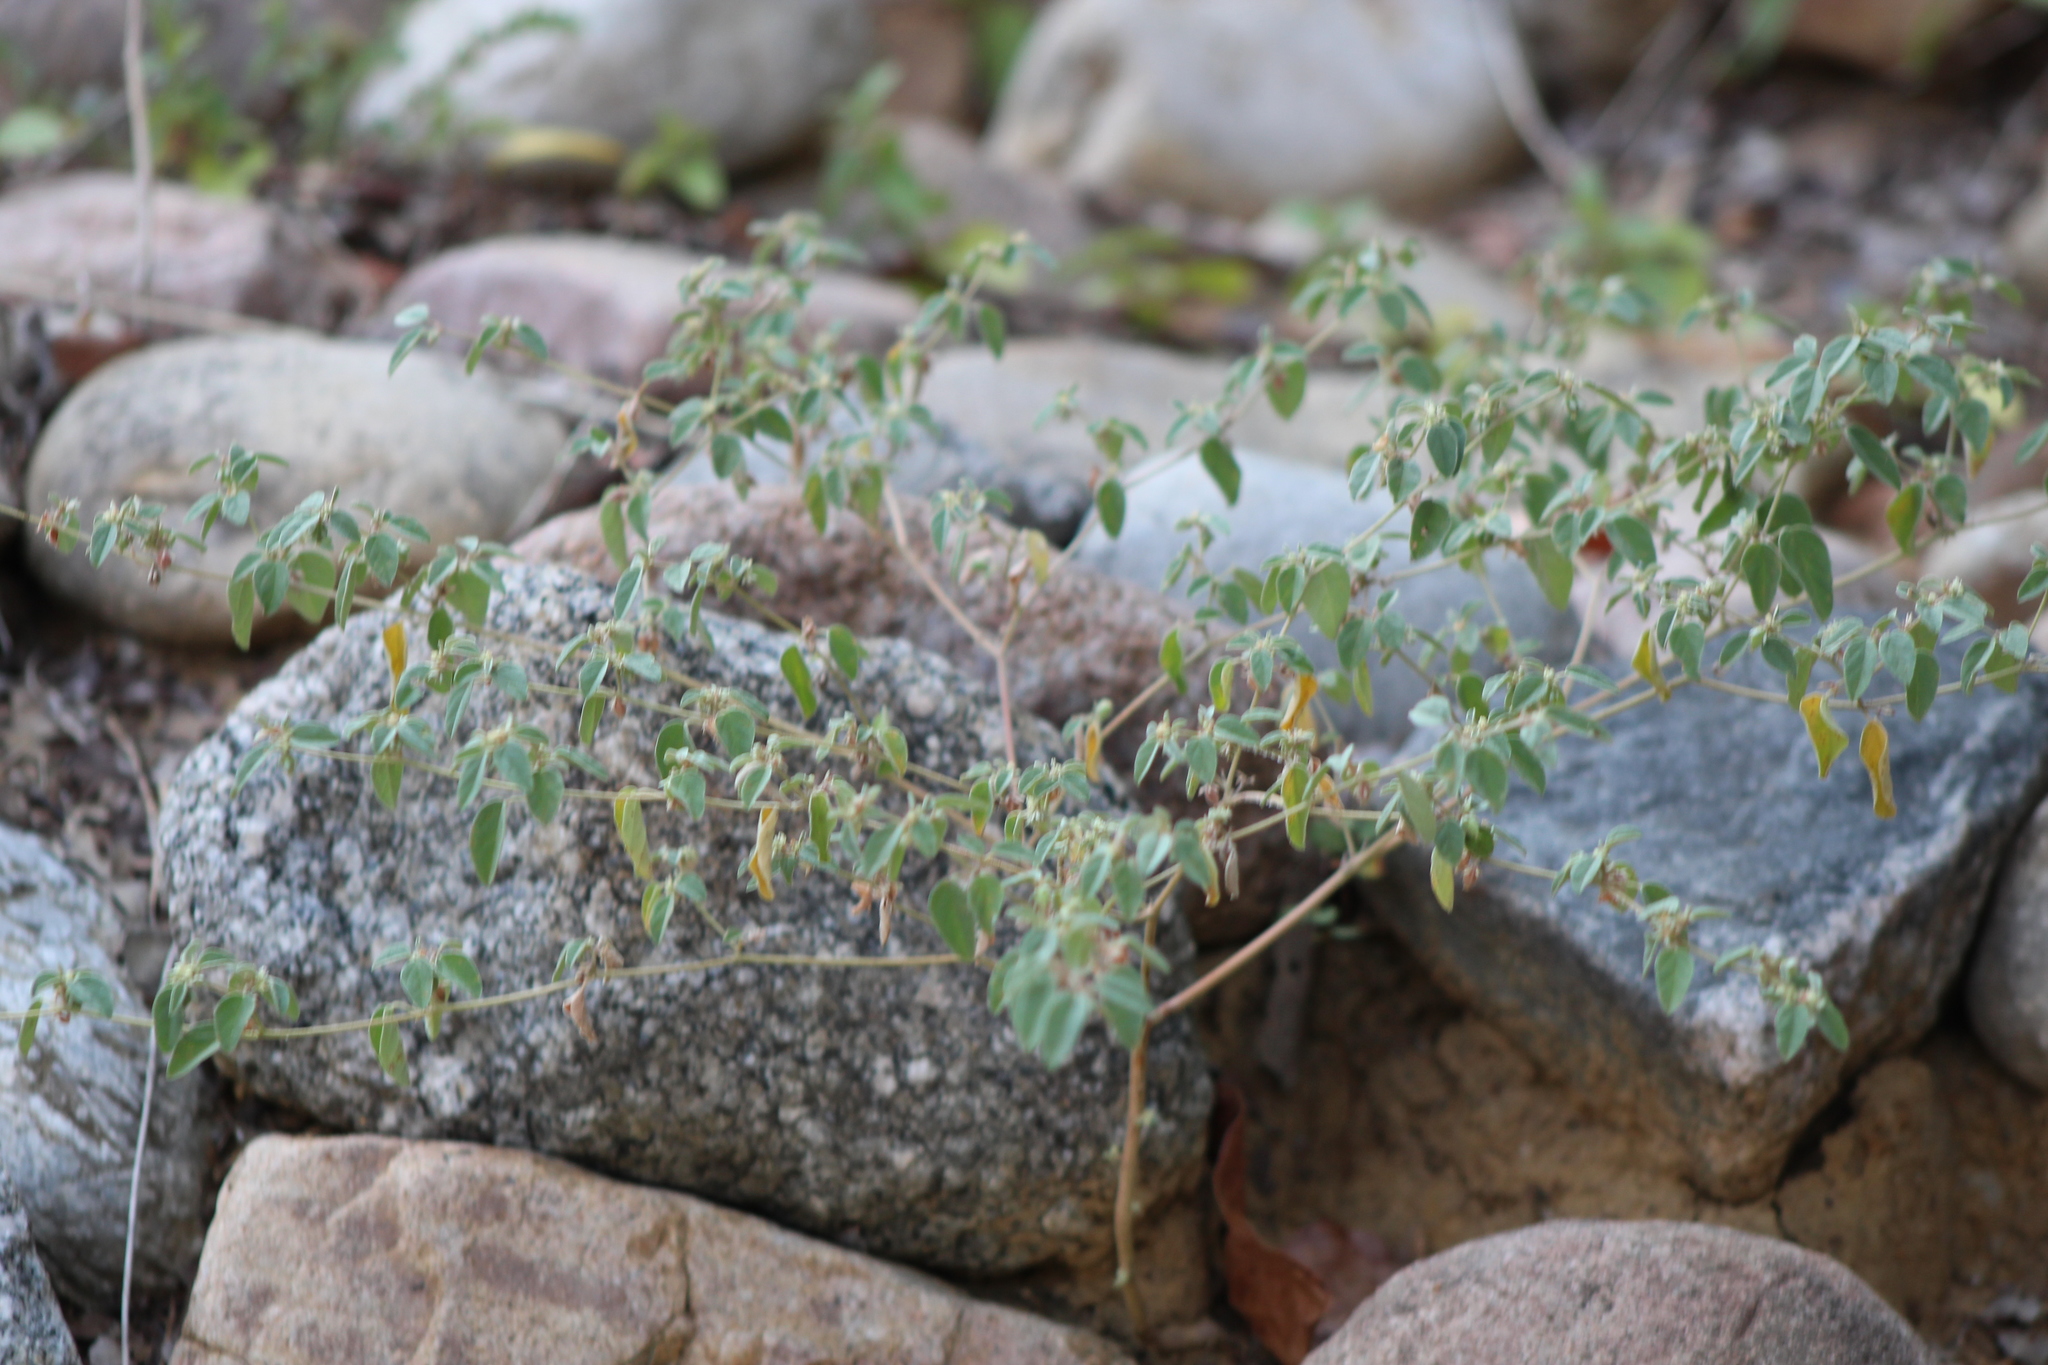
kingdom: Plantae
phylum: Tracheophyta
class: Magnoliopsida
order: Malpighiales
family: Euphorbiaceae
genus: Croton
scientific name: Croton monanthogynus
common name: One-seed croton
